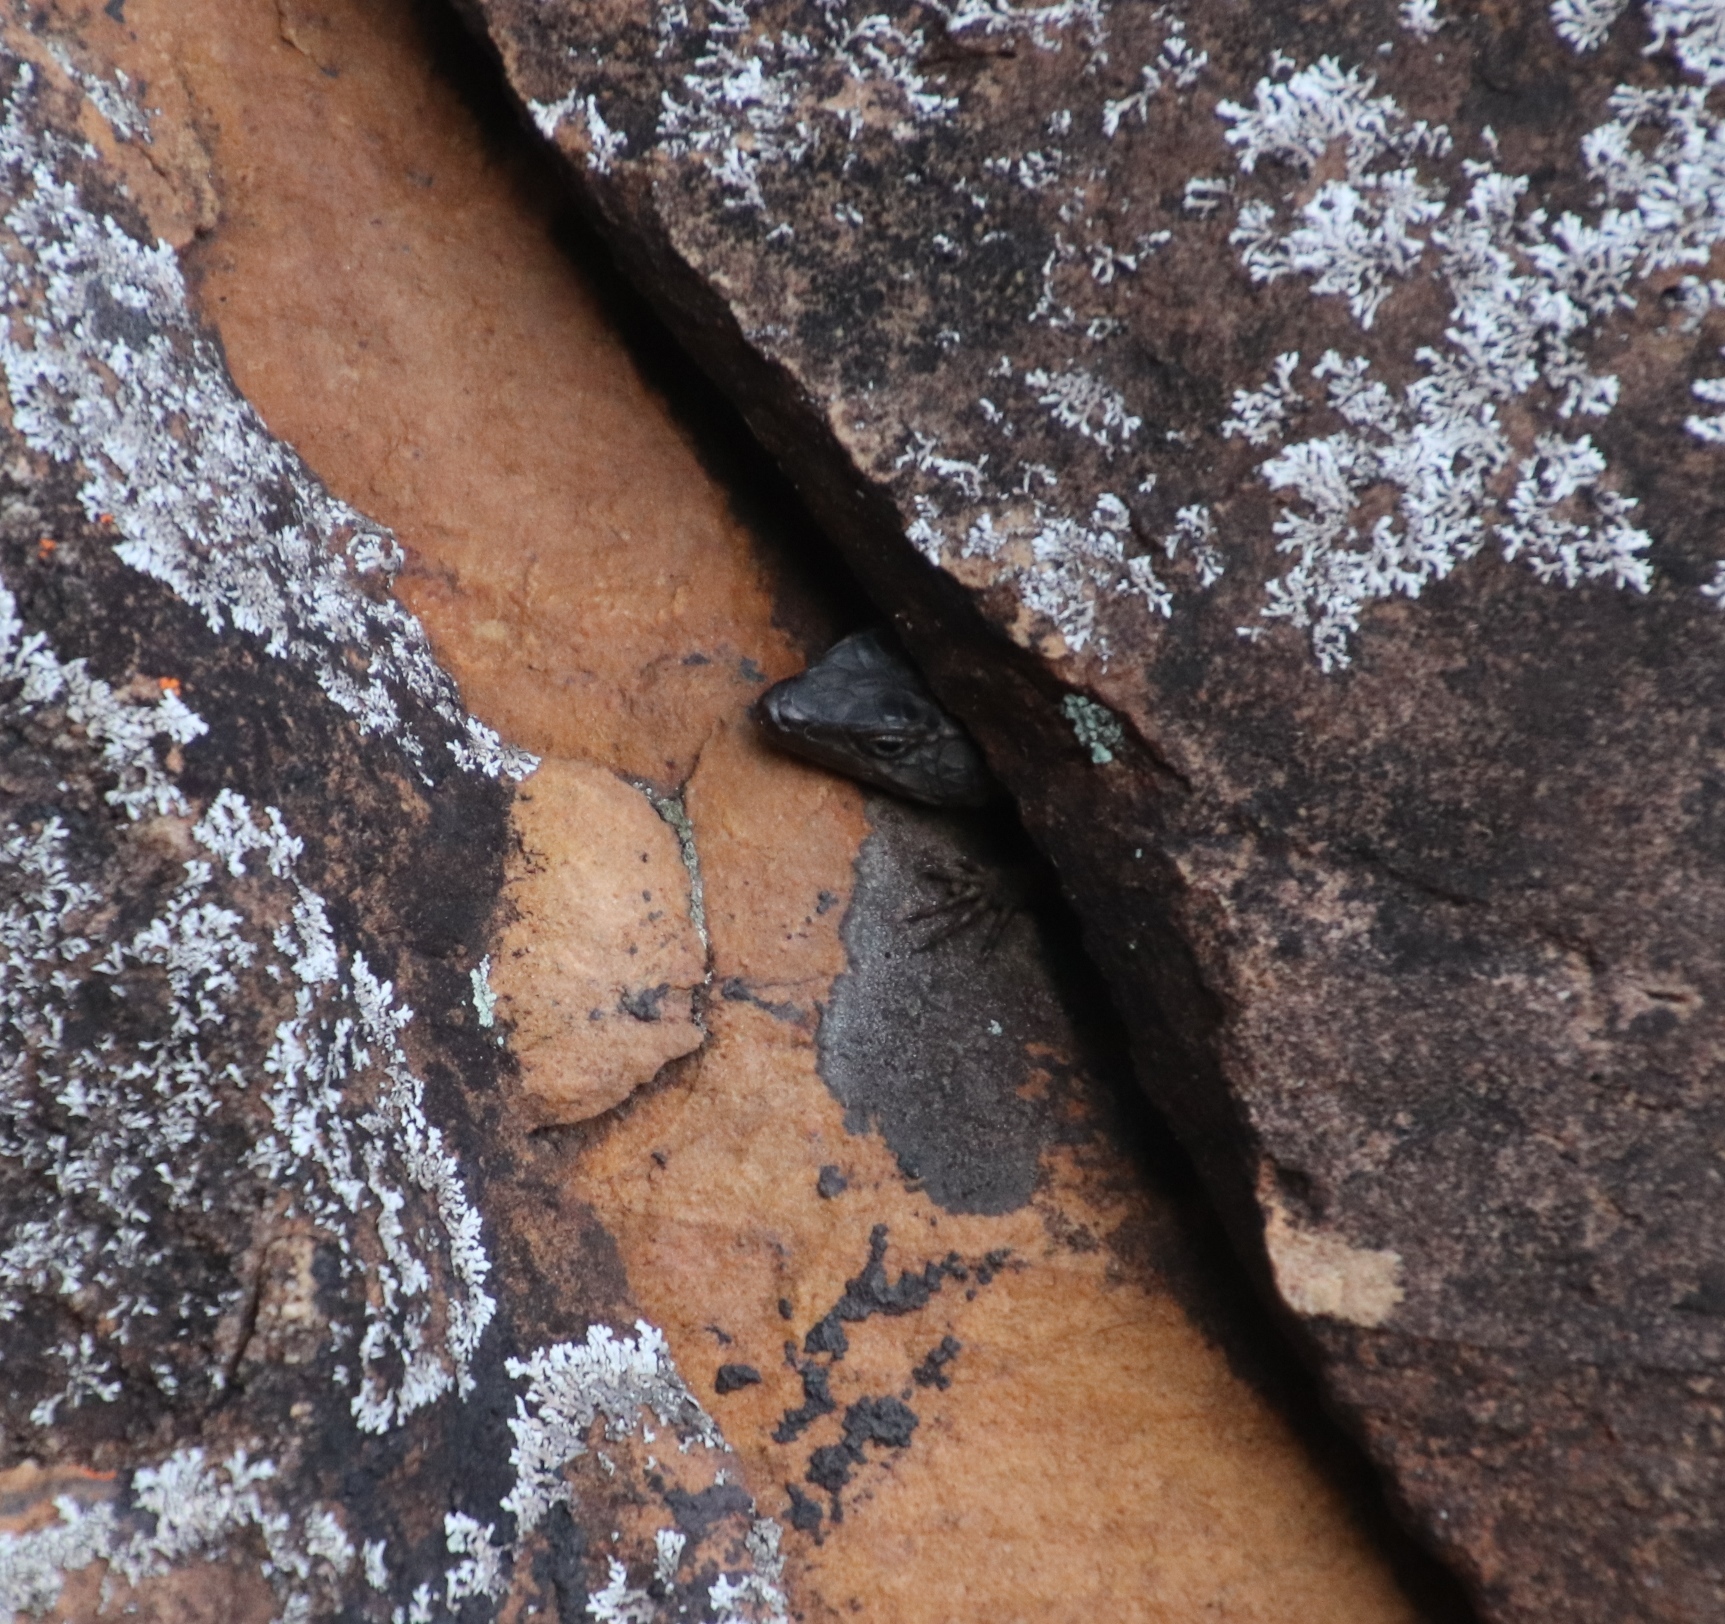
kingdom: Animalia
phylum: Chordata
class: Squamata
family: Cordylidae
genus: Cordylus
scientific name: Cordylus niger
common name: Black girdled lizard
